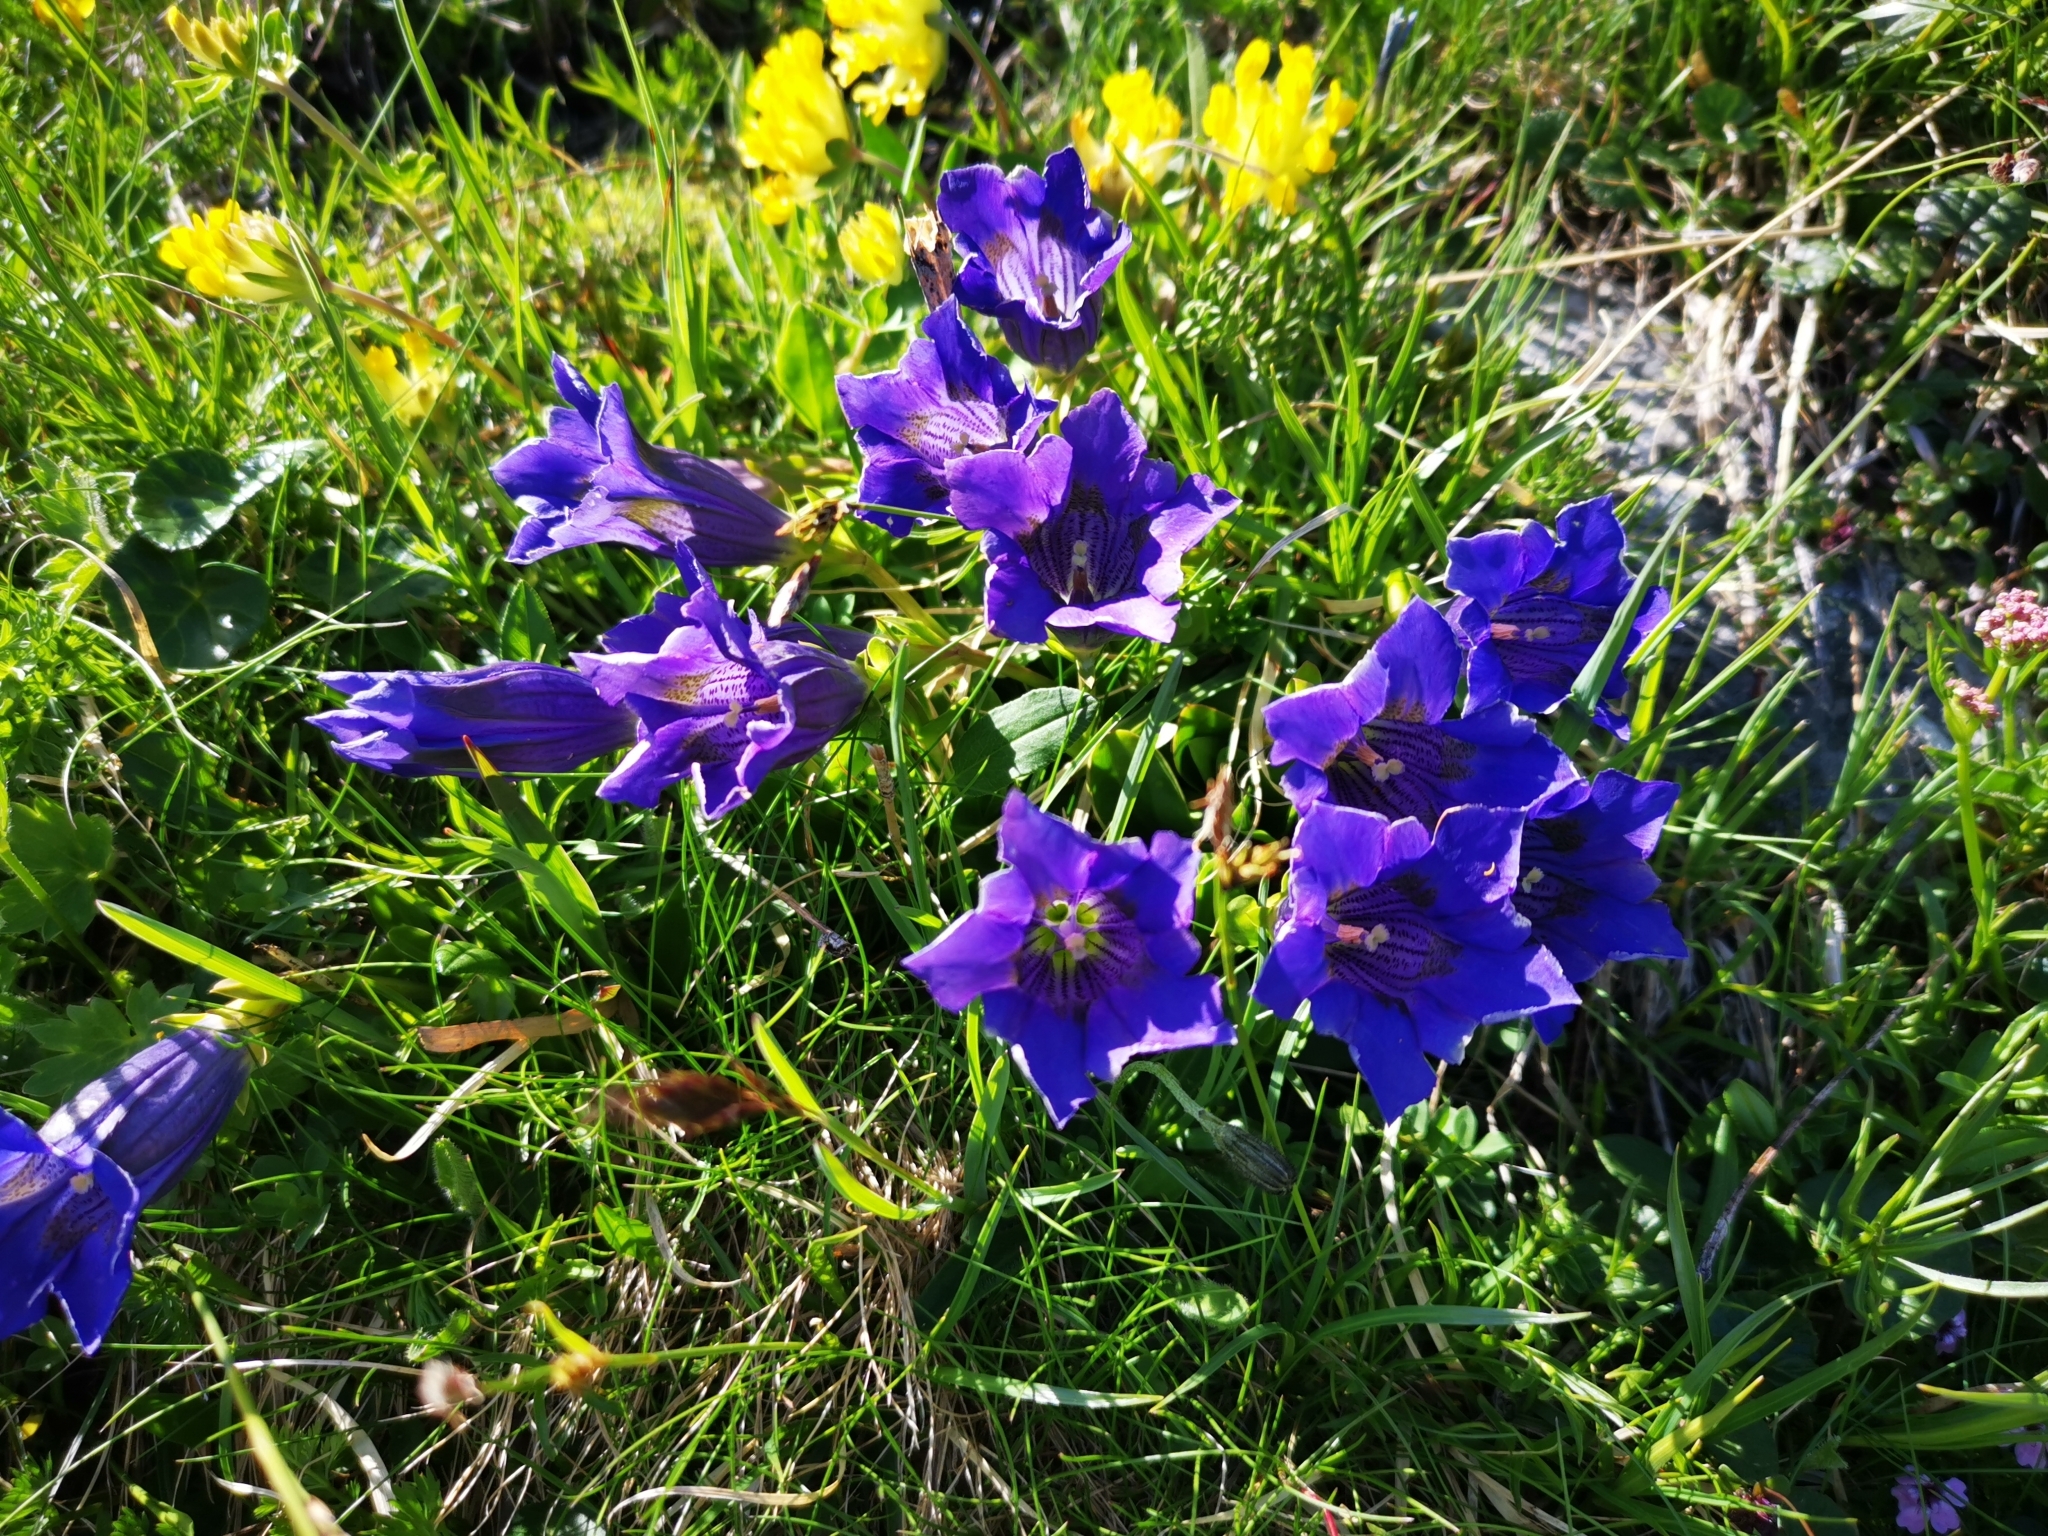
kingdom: Plantae
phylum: Tracheophyta
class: Magnoliopsida
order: Gentianales
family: Gentianaceae
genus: Gentiana
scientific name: Gentiana acaulis
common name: Trumpet gentian
